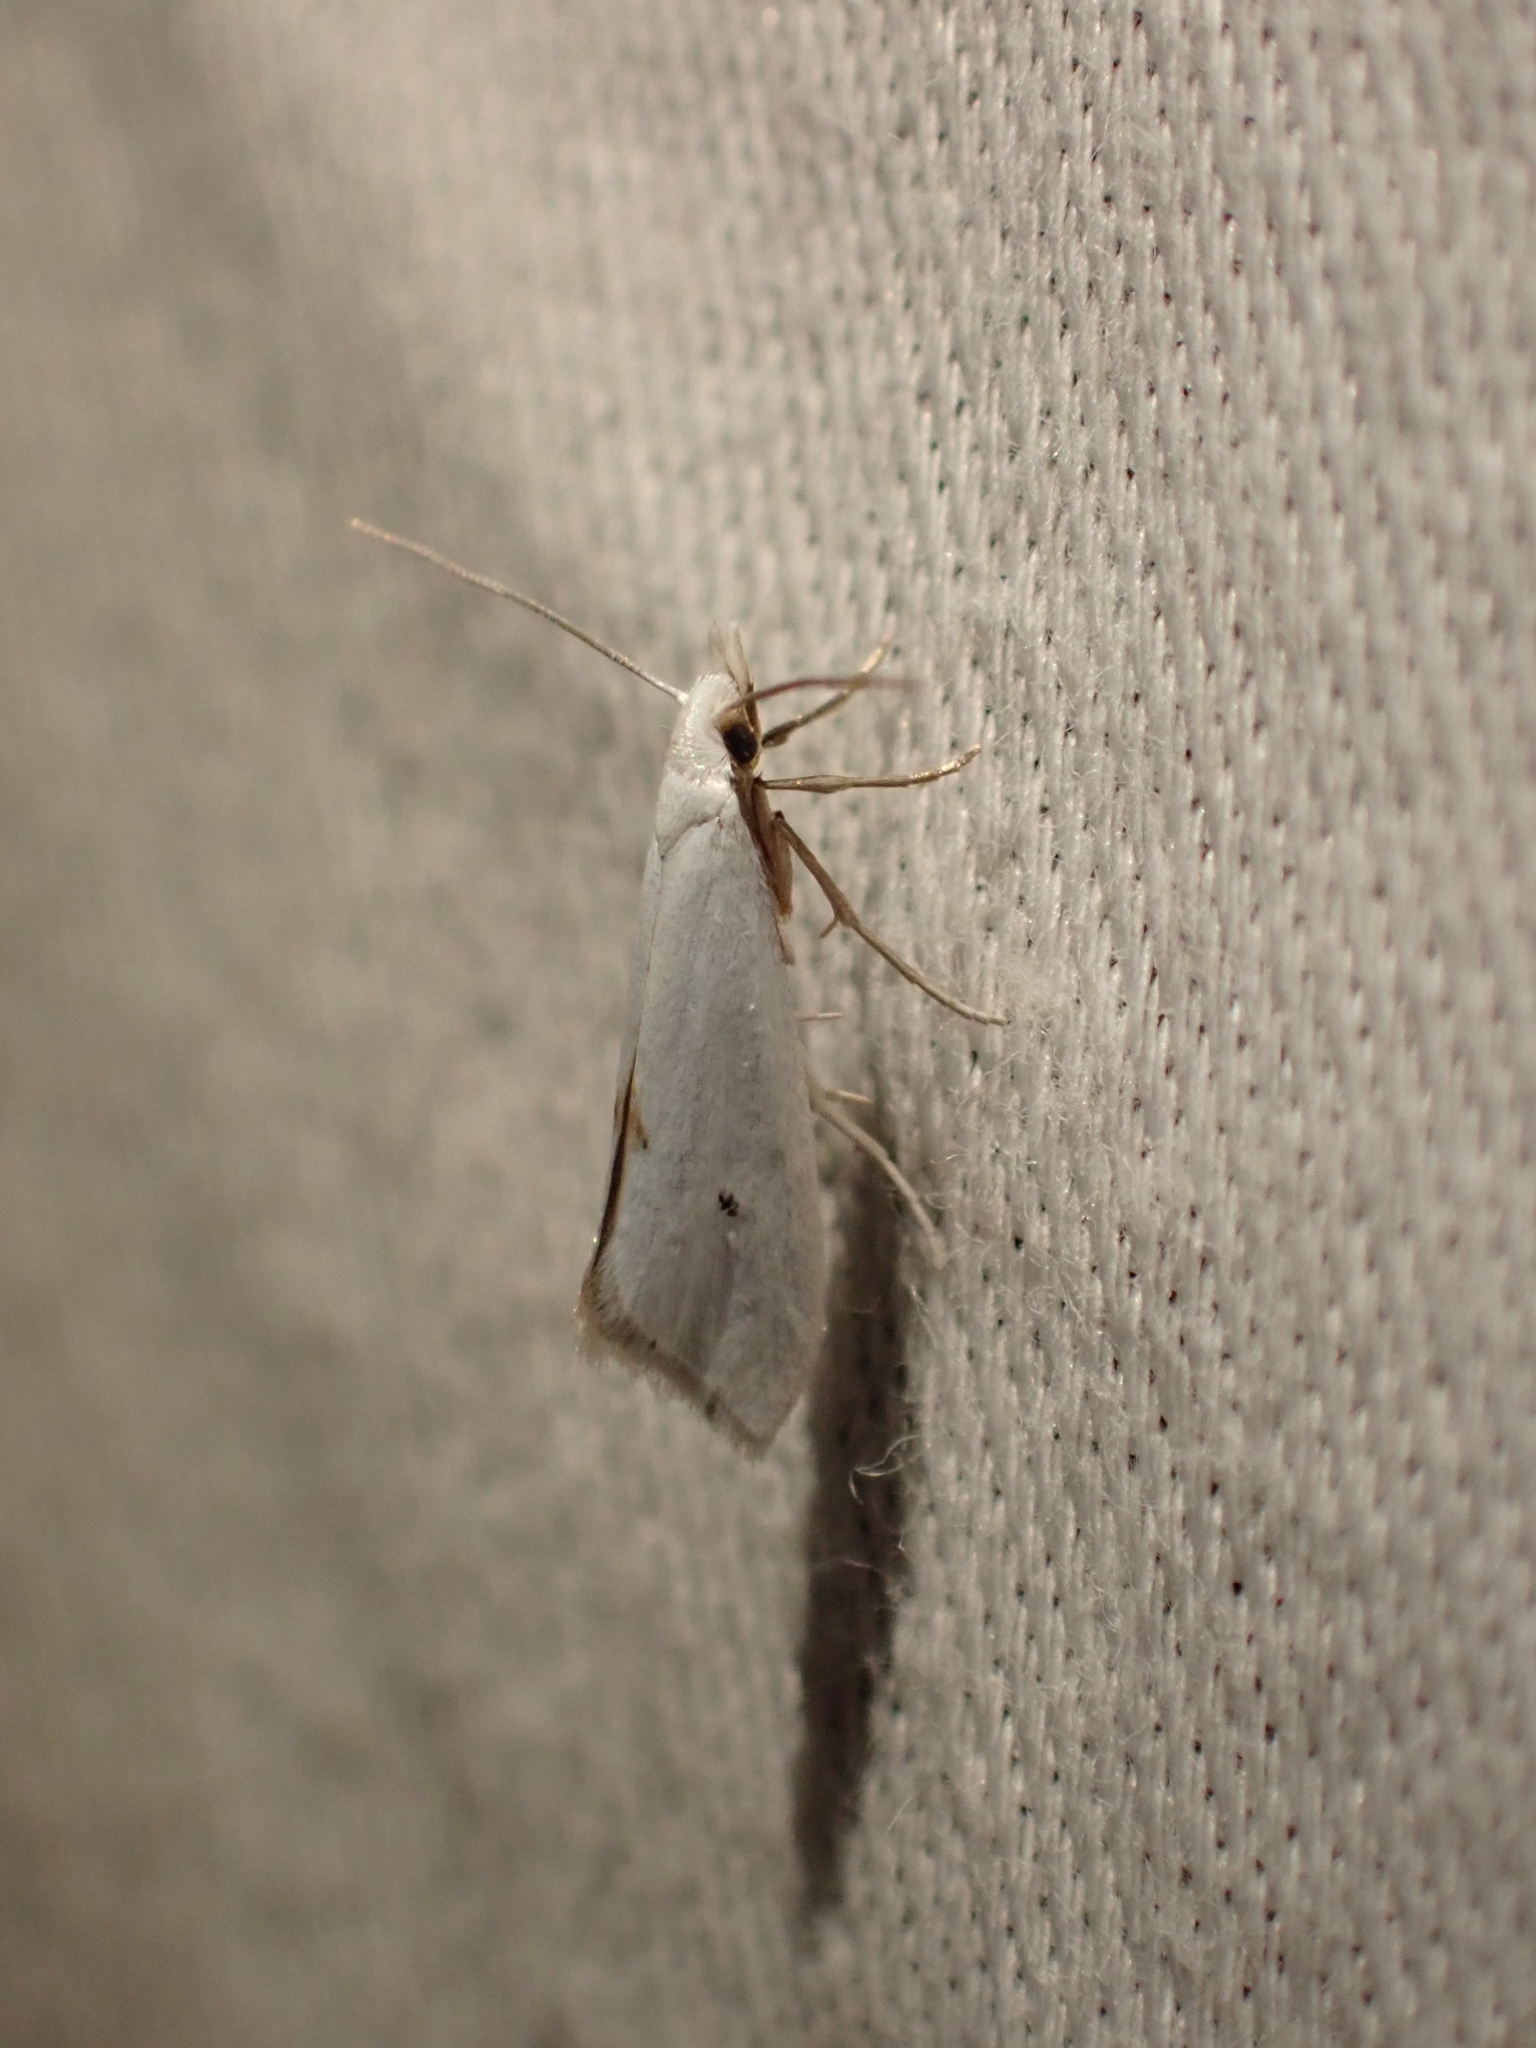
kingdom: Animalia
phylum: Arthropoda
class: Insecta
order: Lepidoptera
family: Yponomeutidae
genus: Eucalantica
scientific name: Eucalantica polita
